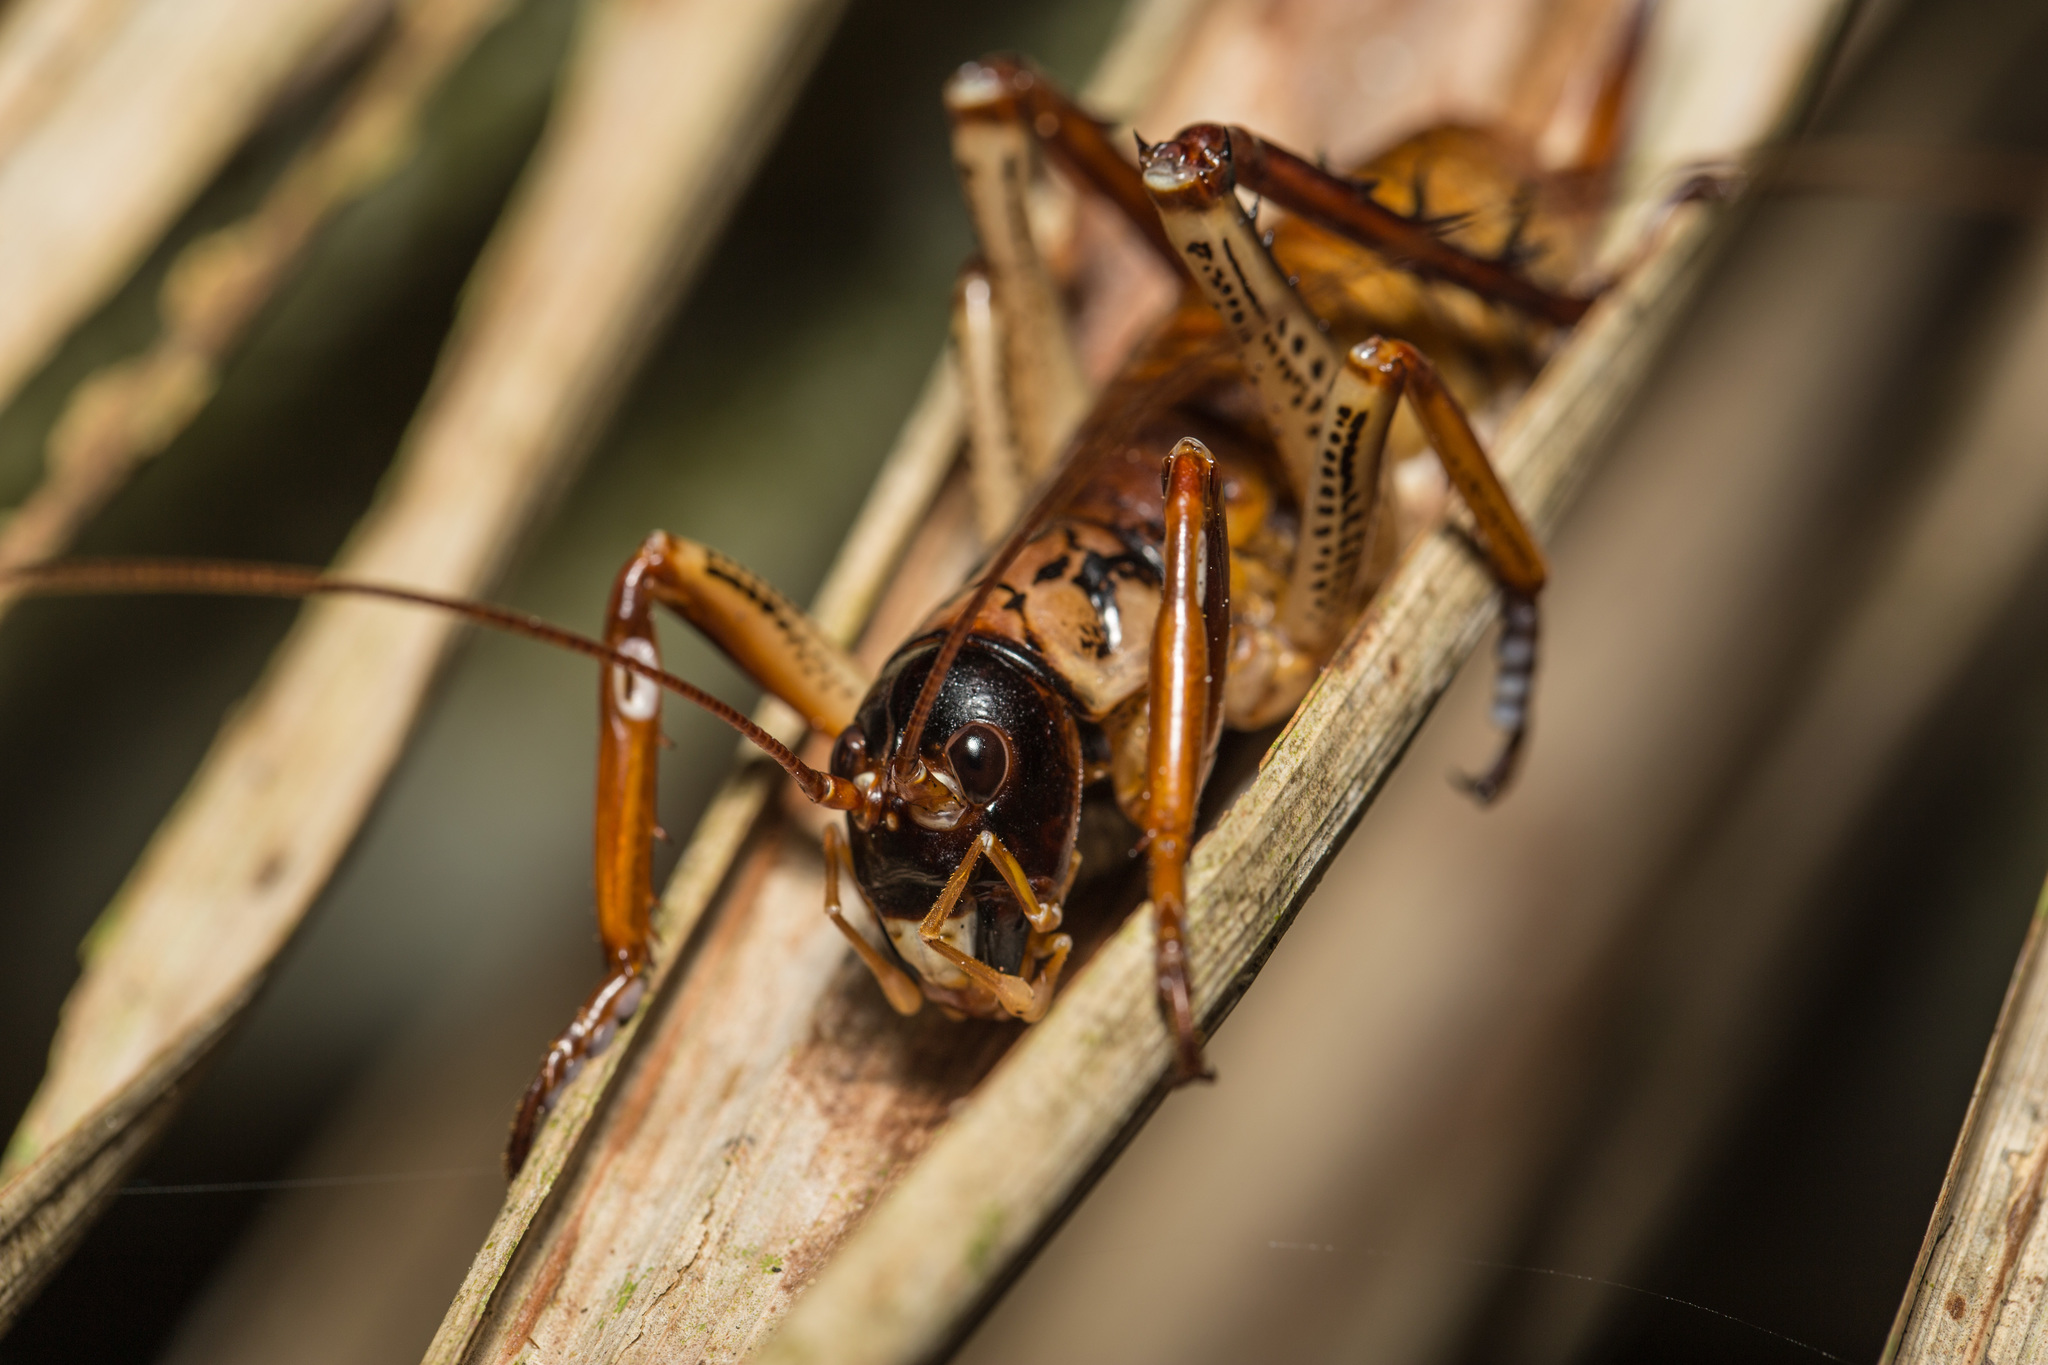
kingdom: Animalia
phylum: Arthropoda
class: Insecta
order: Orthoptera
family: Anostostomatidae
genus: Hemideina
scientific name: Hemideina thoracica
